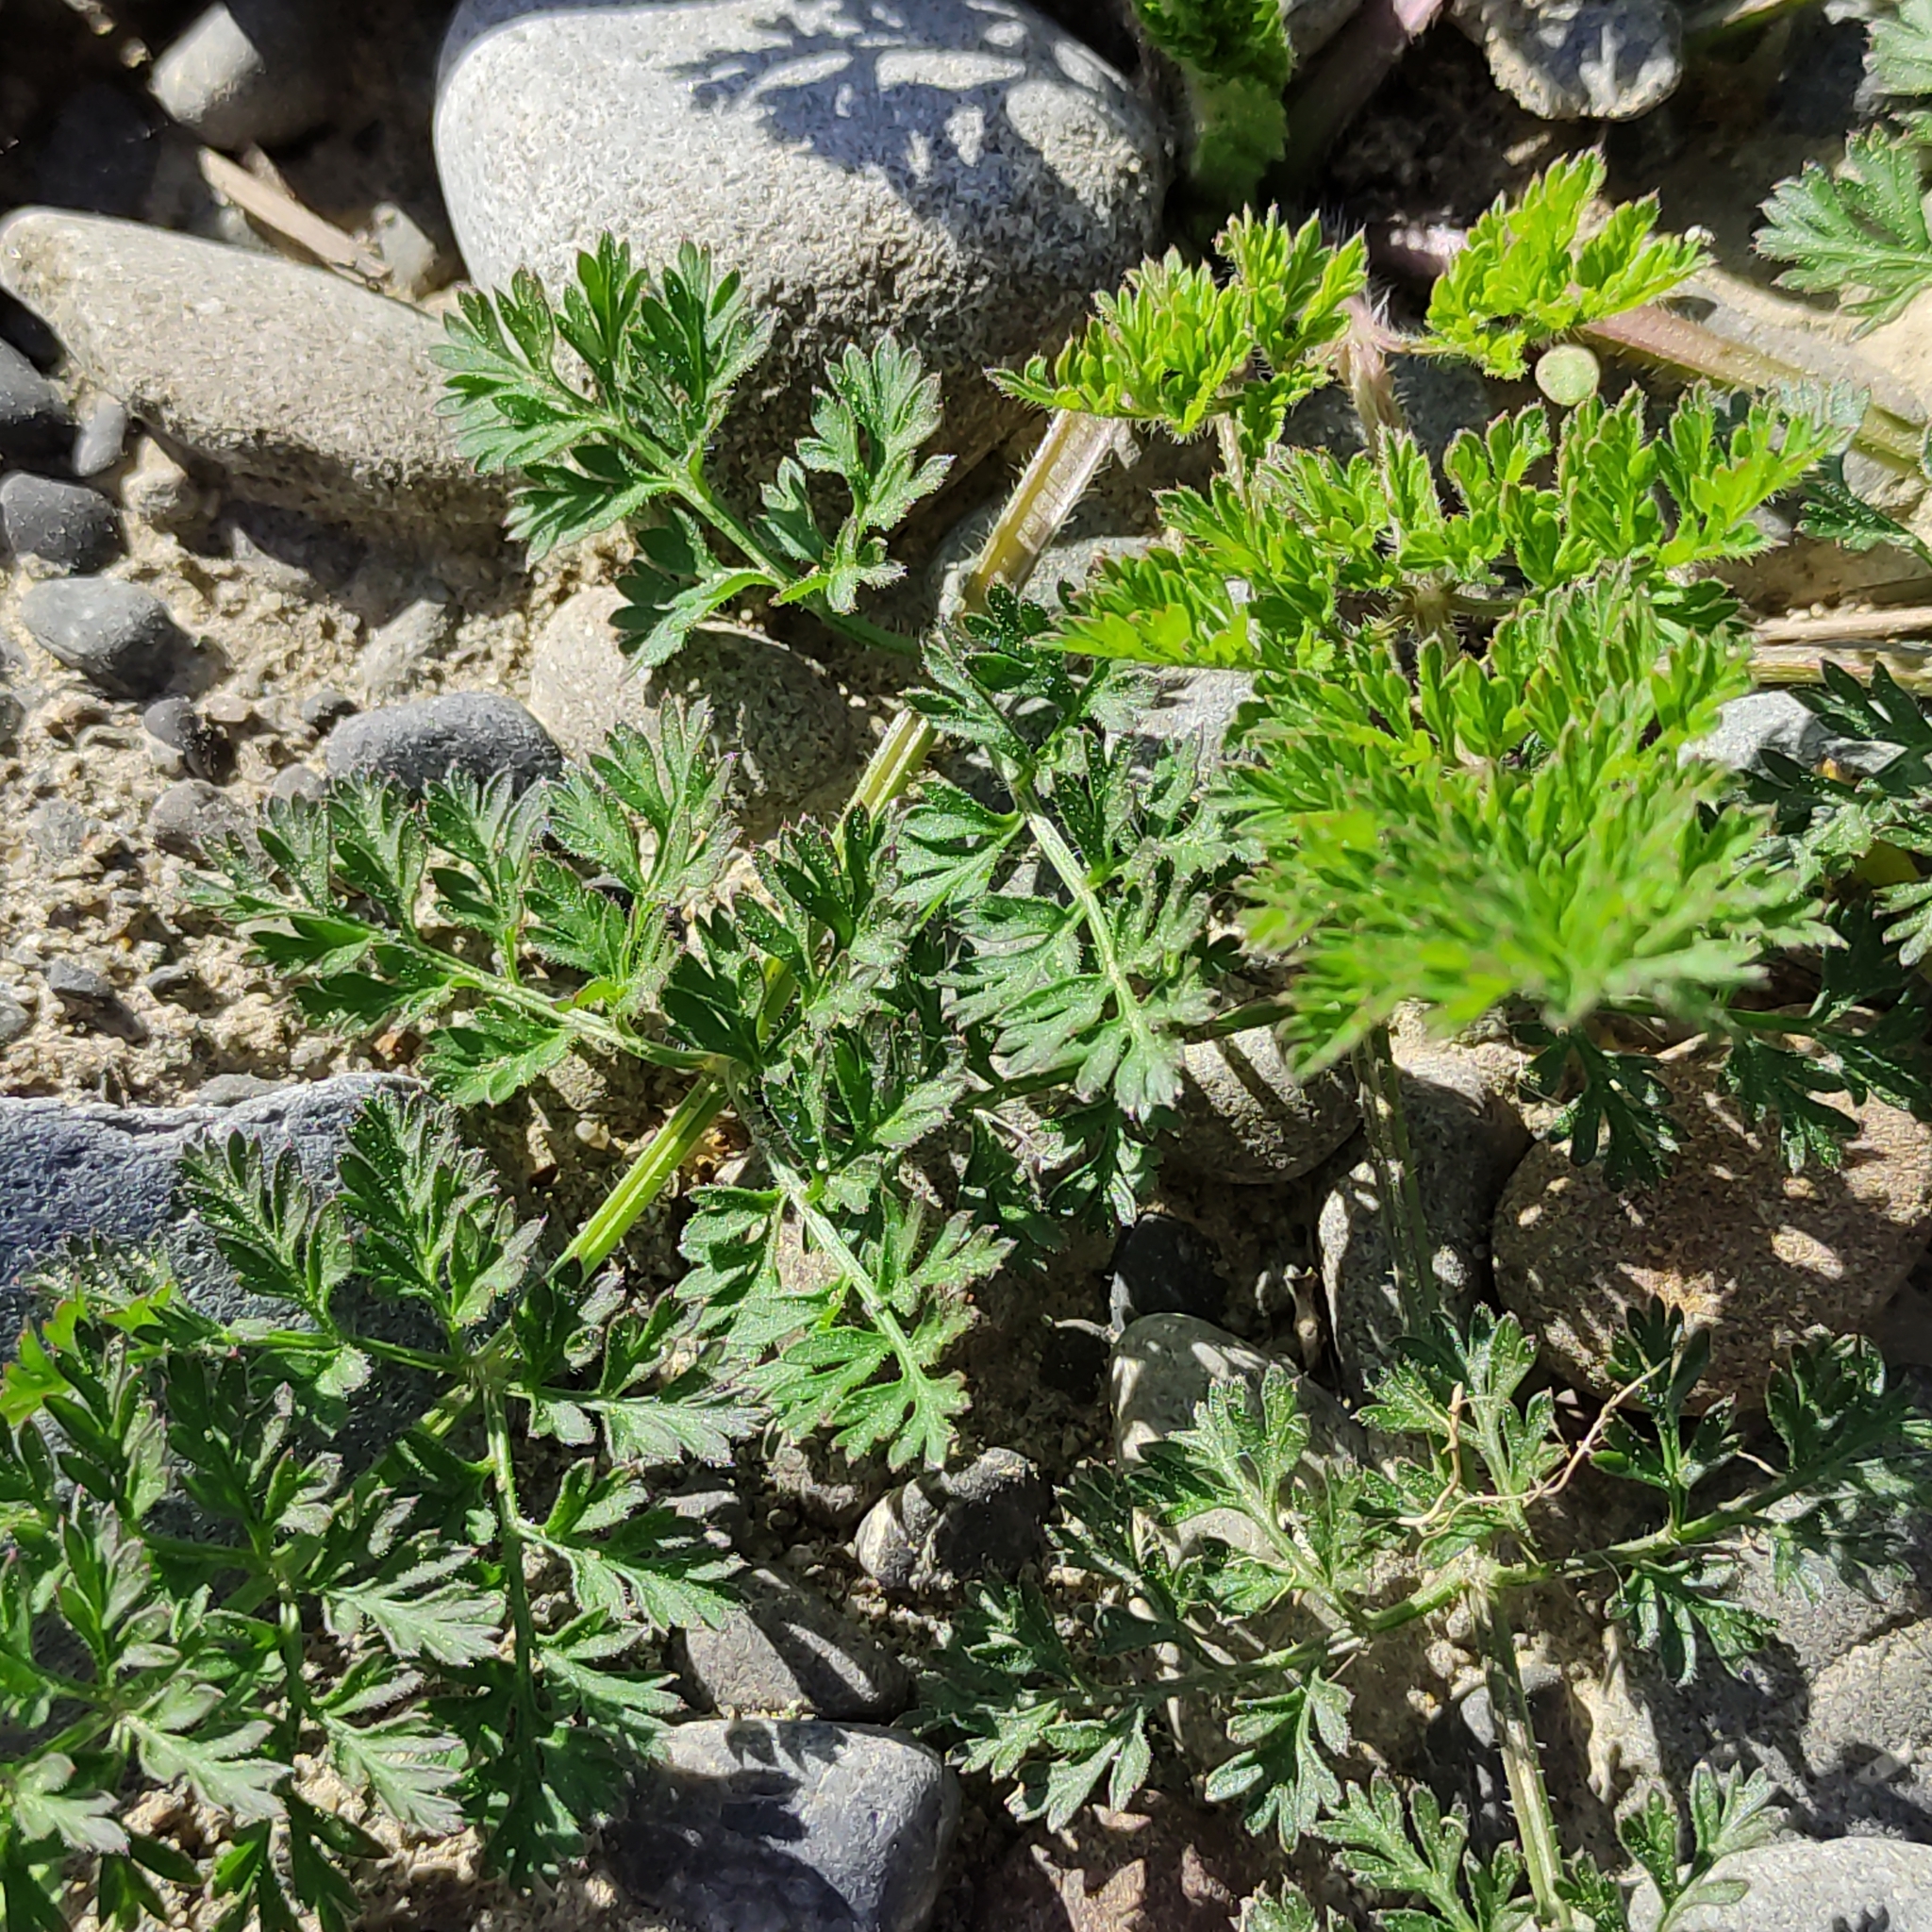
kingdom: Plantae
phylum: Tracheophyta
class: Magnoliopsida
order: Apiales
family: Apiaceae
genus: Daucus
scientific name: Daucus carota
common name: Wild carrot
